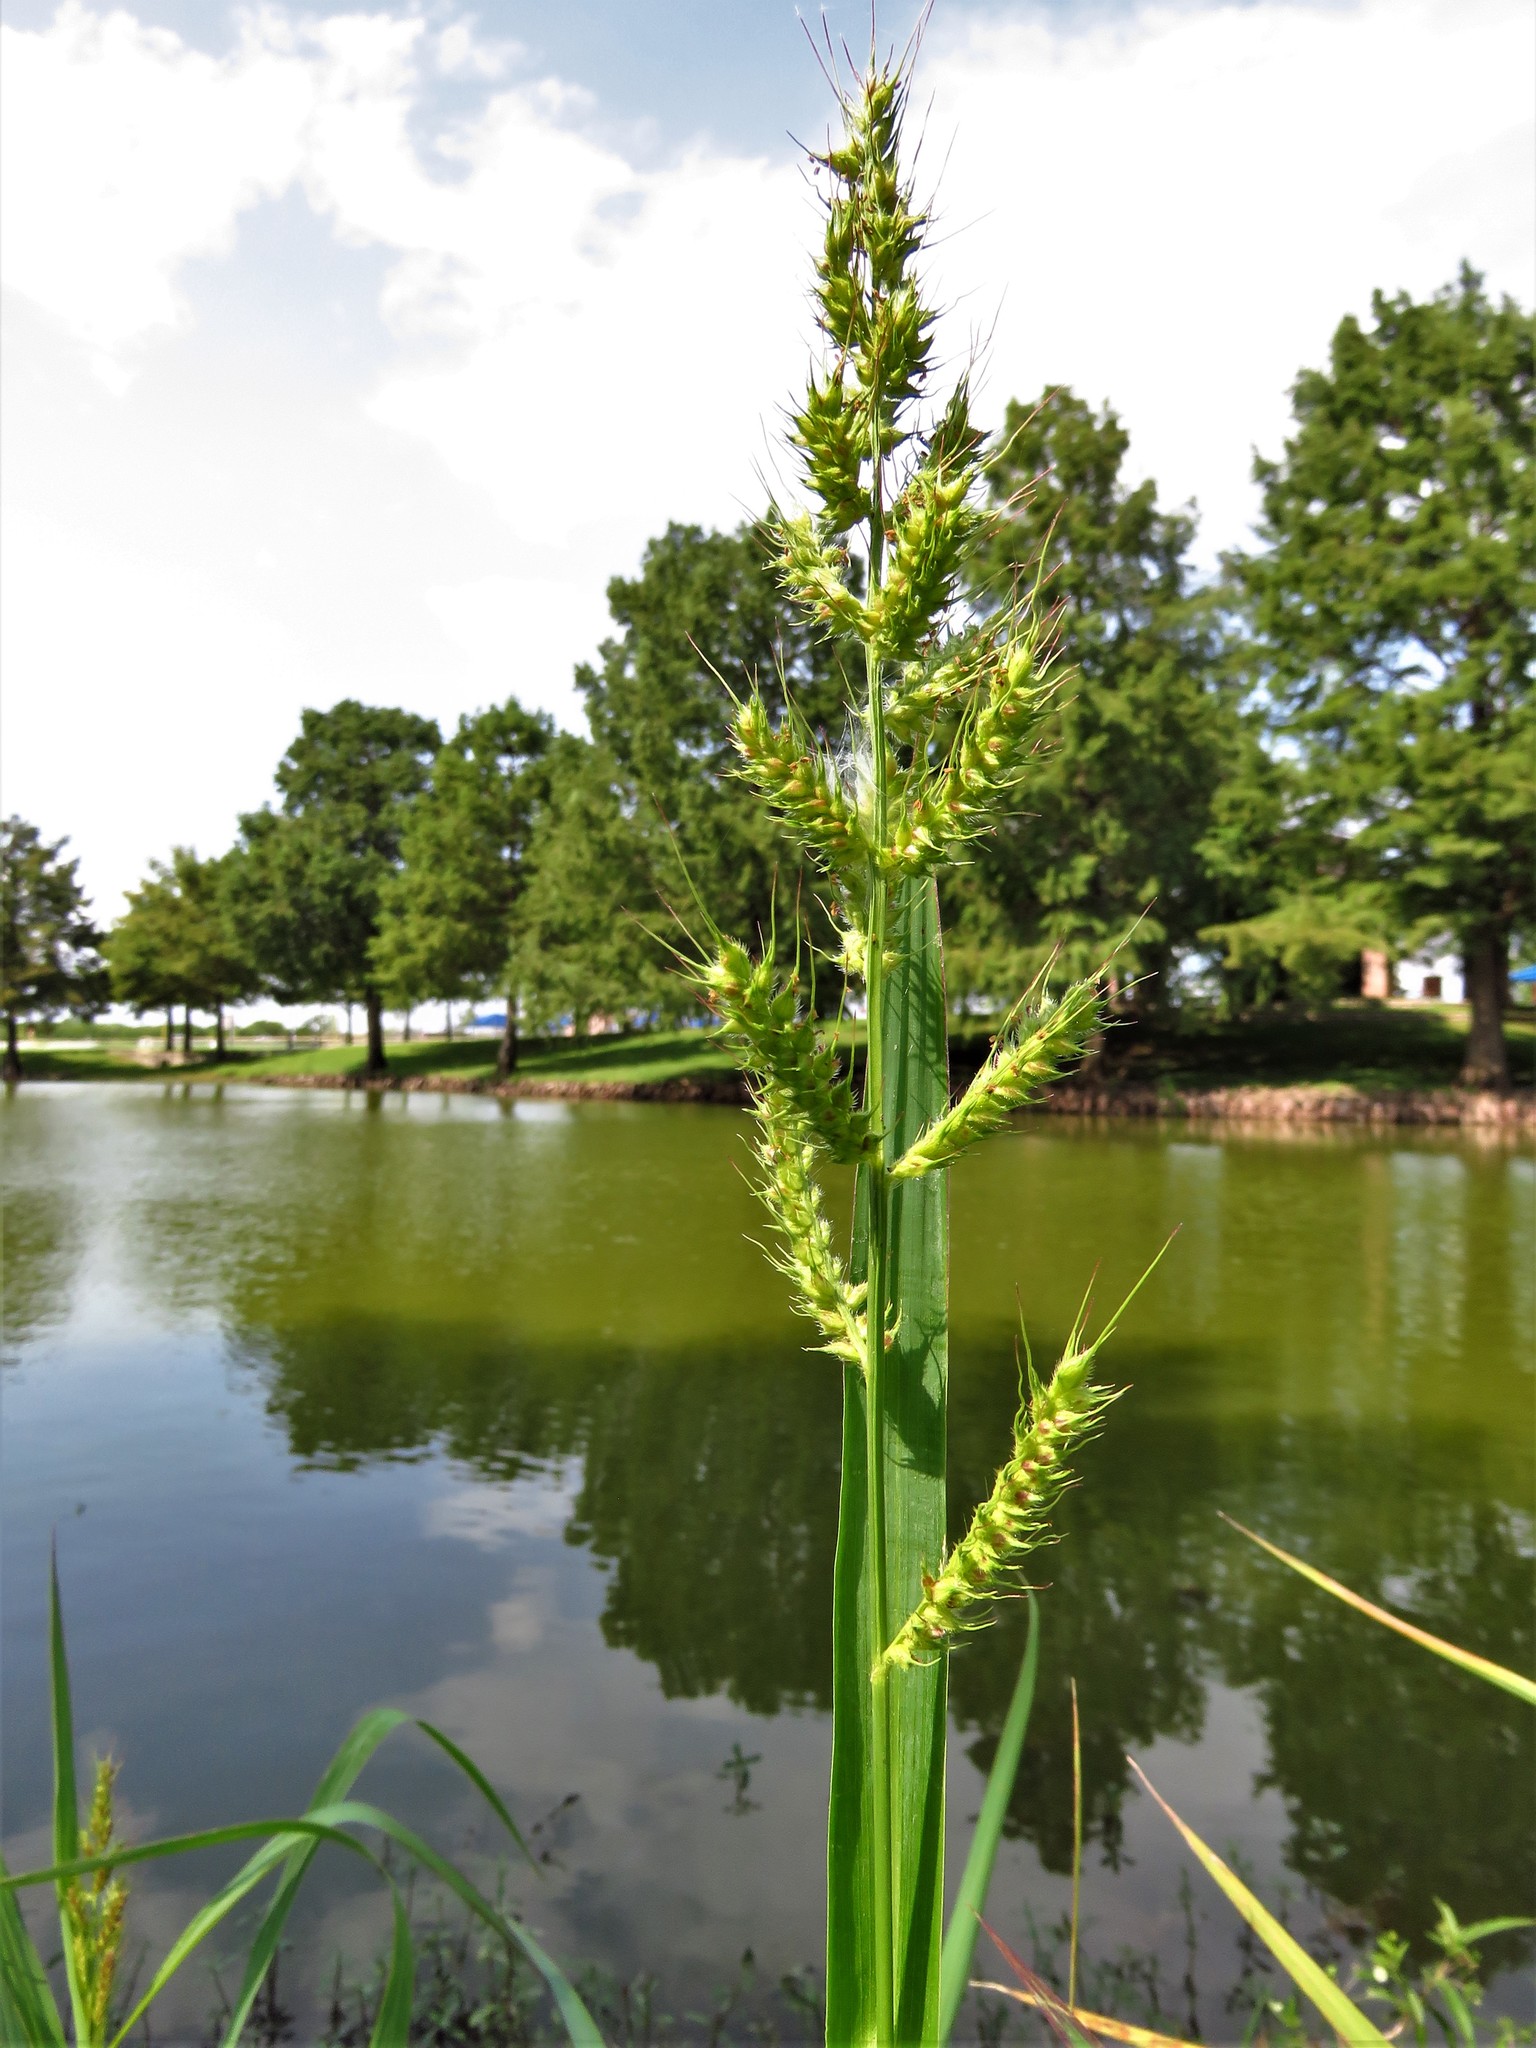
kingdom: Plantae
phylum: Tracheophyta
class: Liliopsida
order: Poales
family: Poaceae
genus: Echinochloa
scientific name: Echinochloa crus-galli
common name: Cockspur
